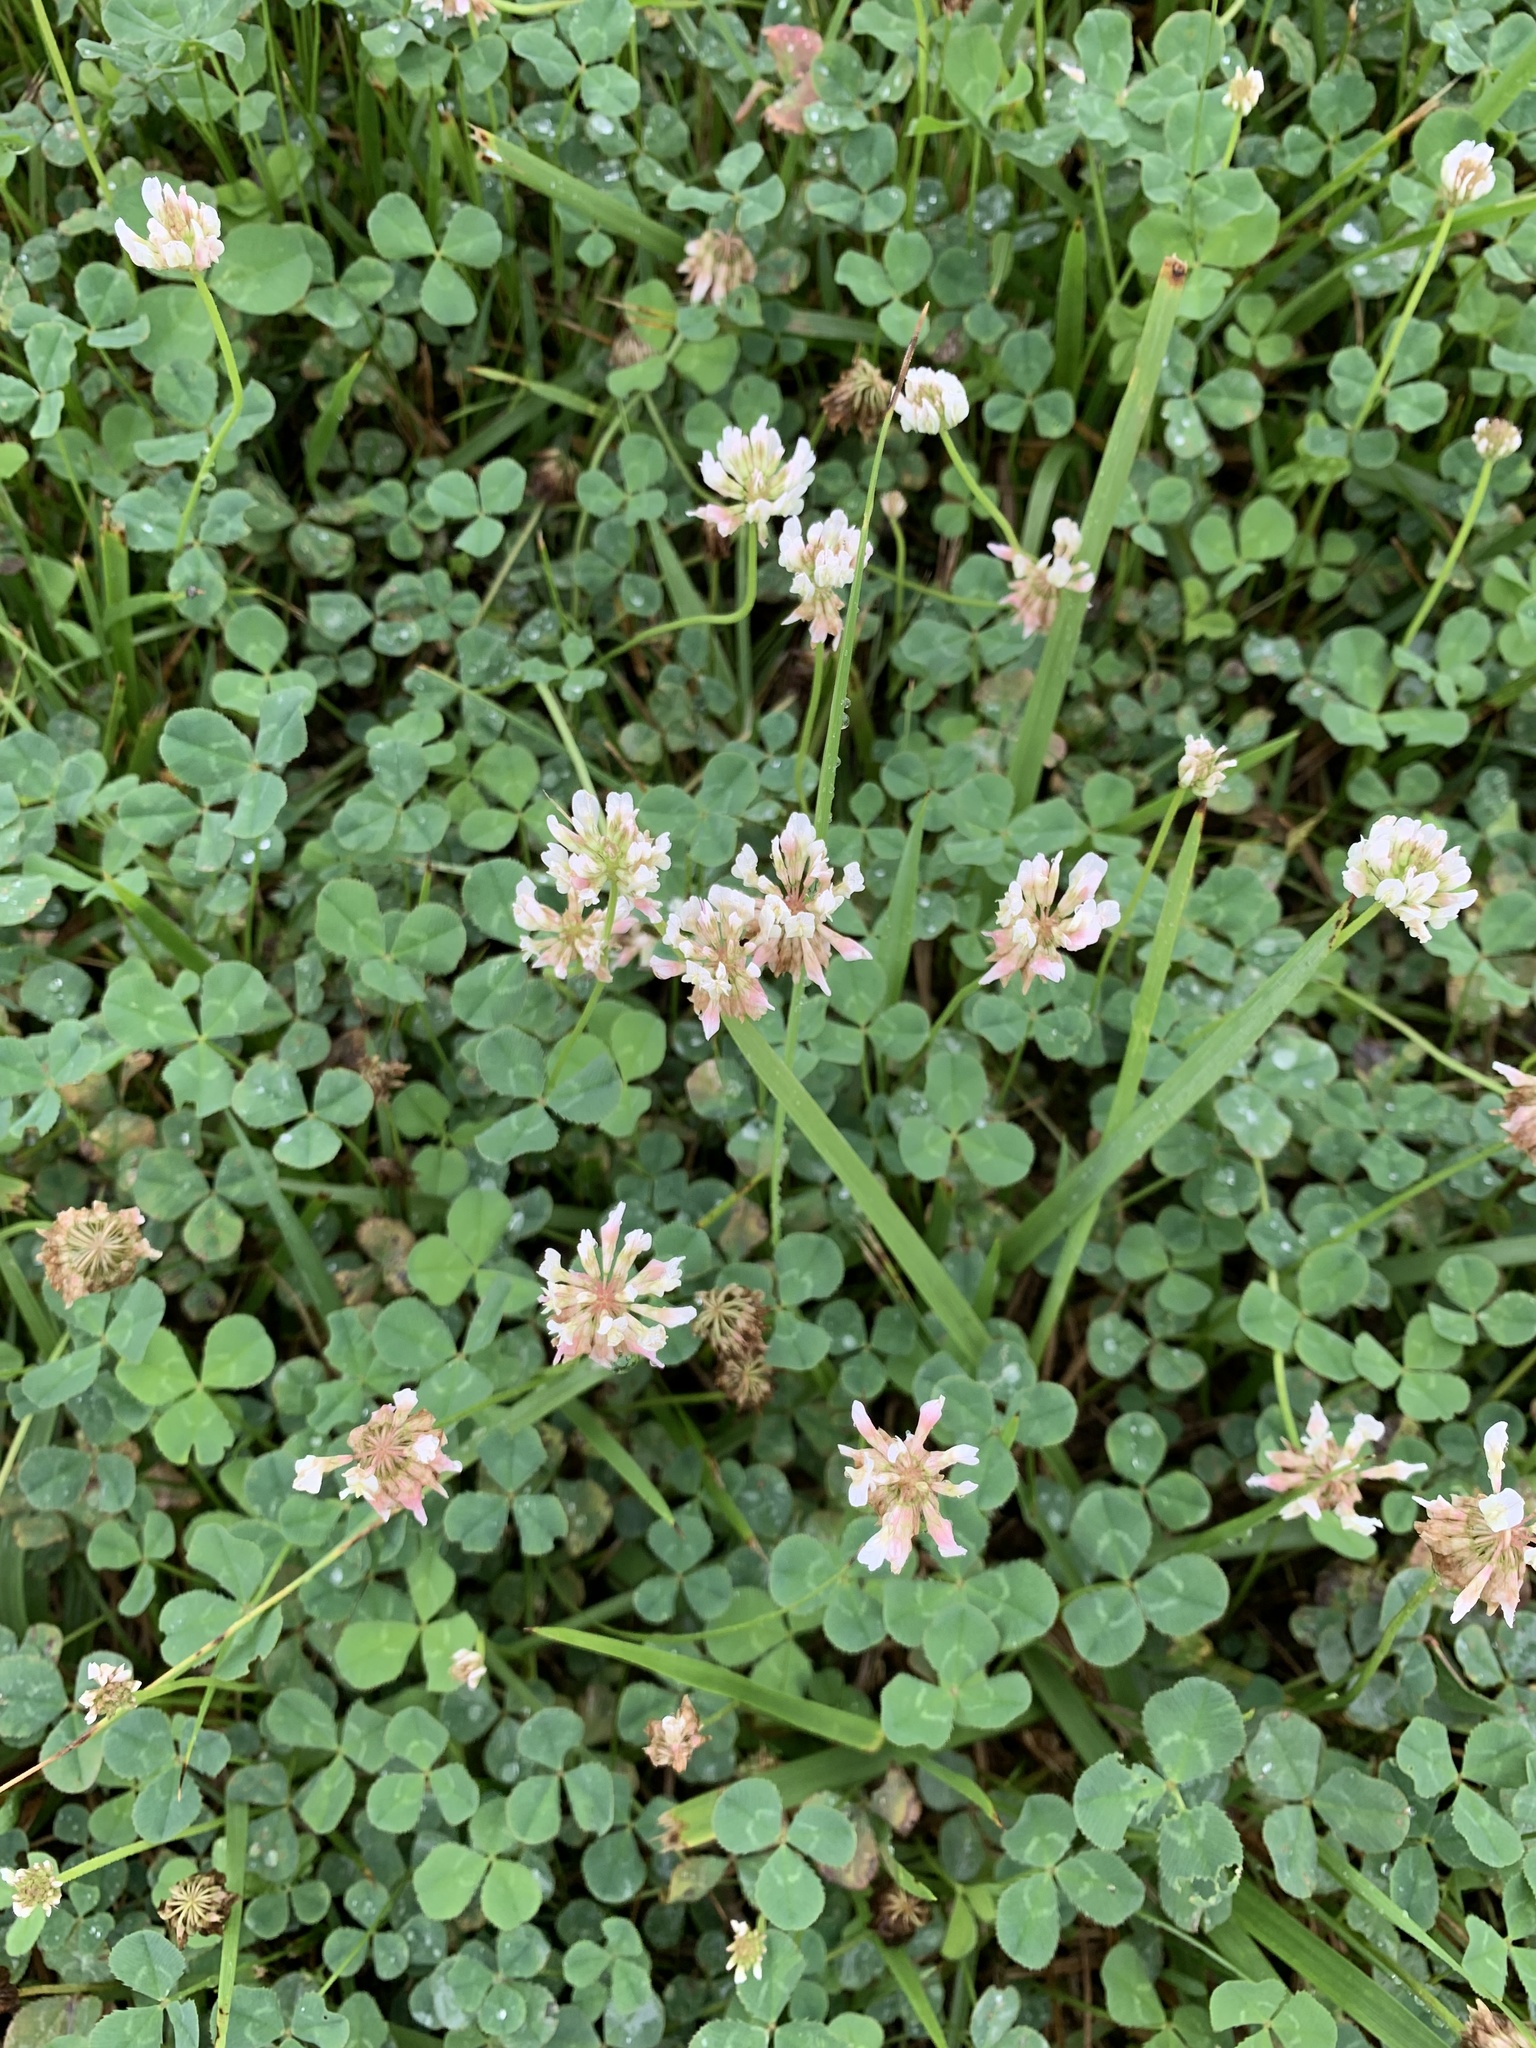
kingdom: Plantae
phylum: Tracheophyta
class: Magnoliopsida
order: Fabales
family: Fabaceae
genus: Trifolium
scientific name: Trifolium repens
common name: White clover
